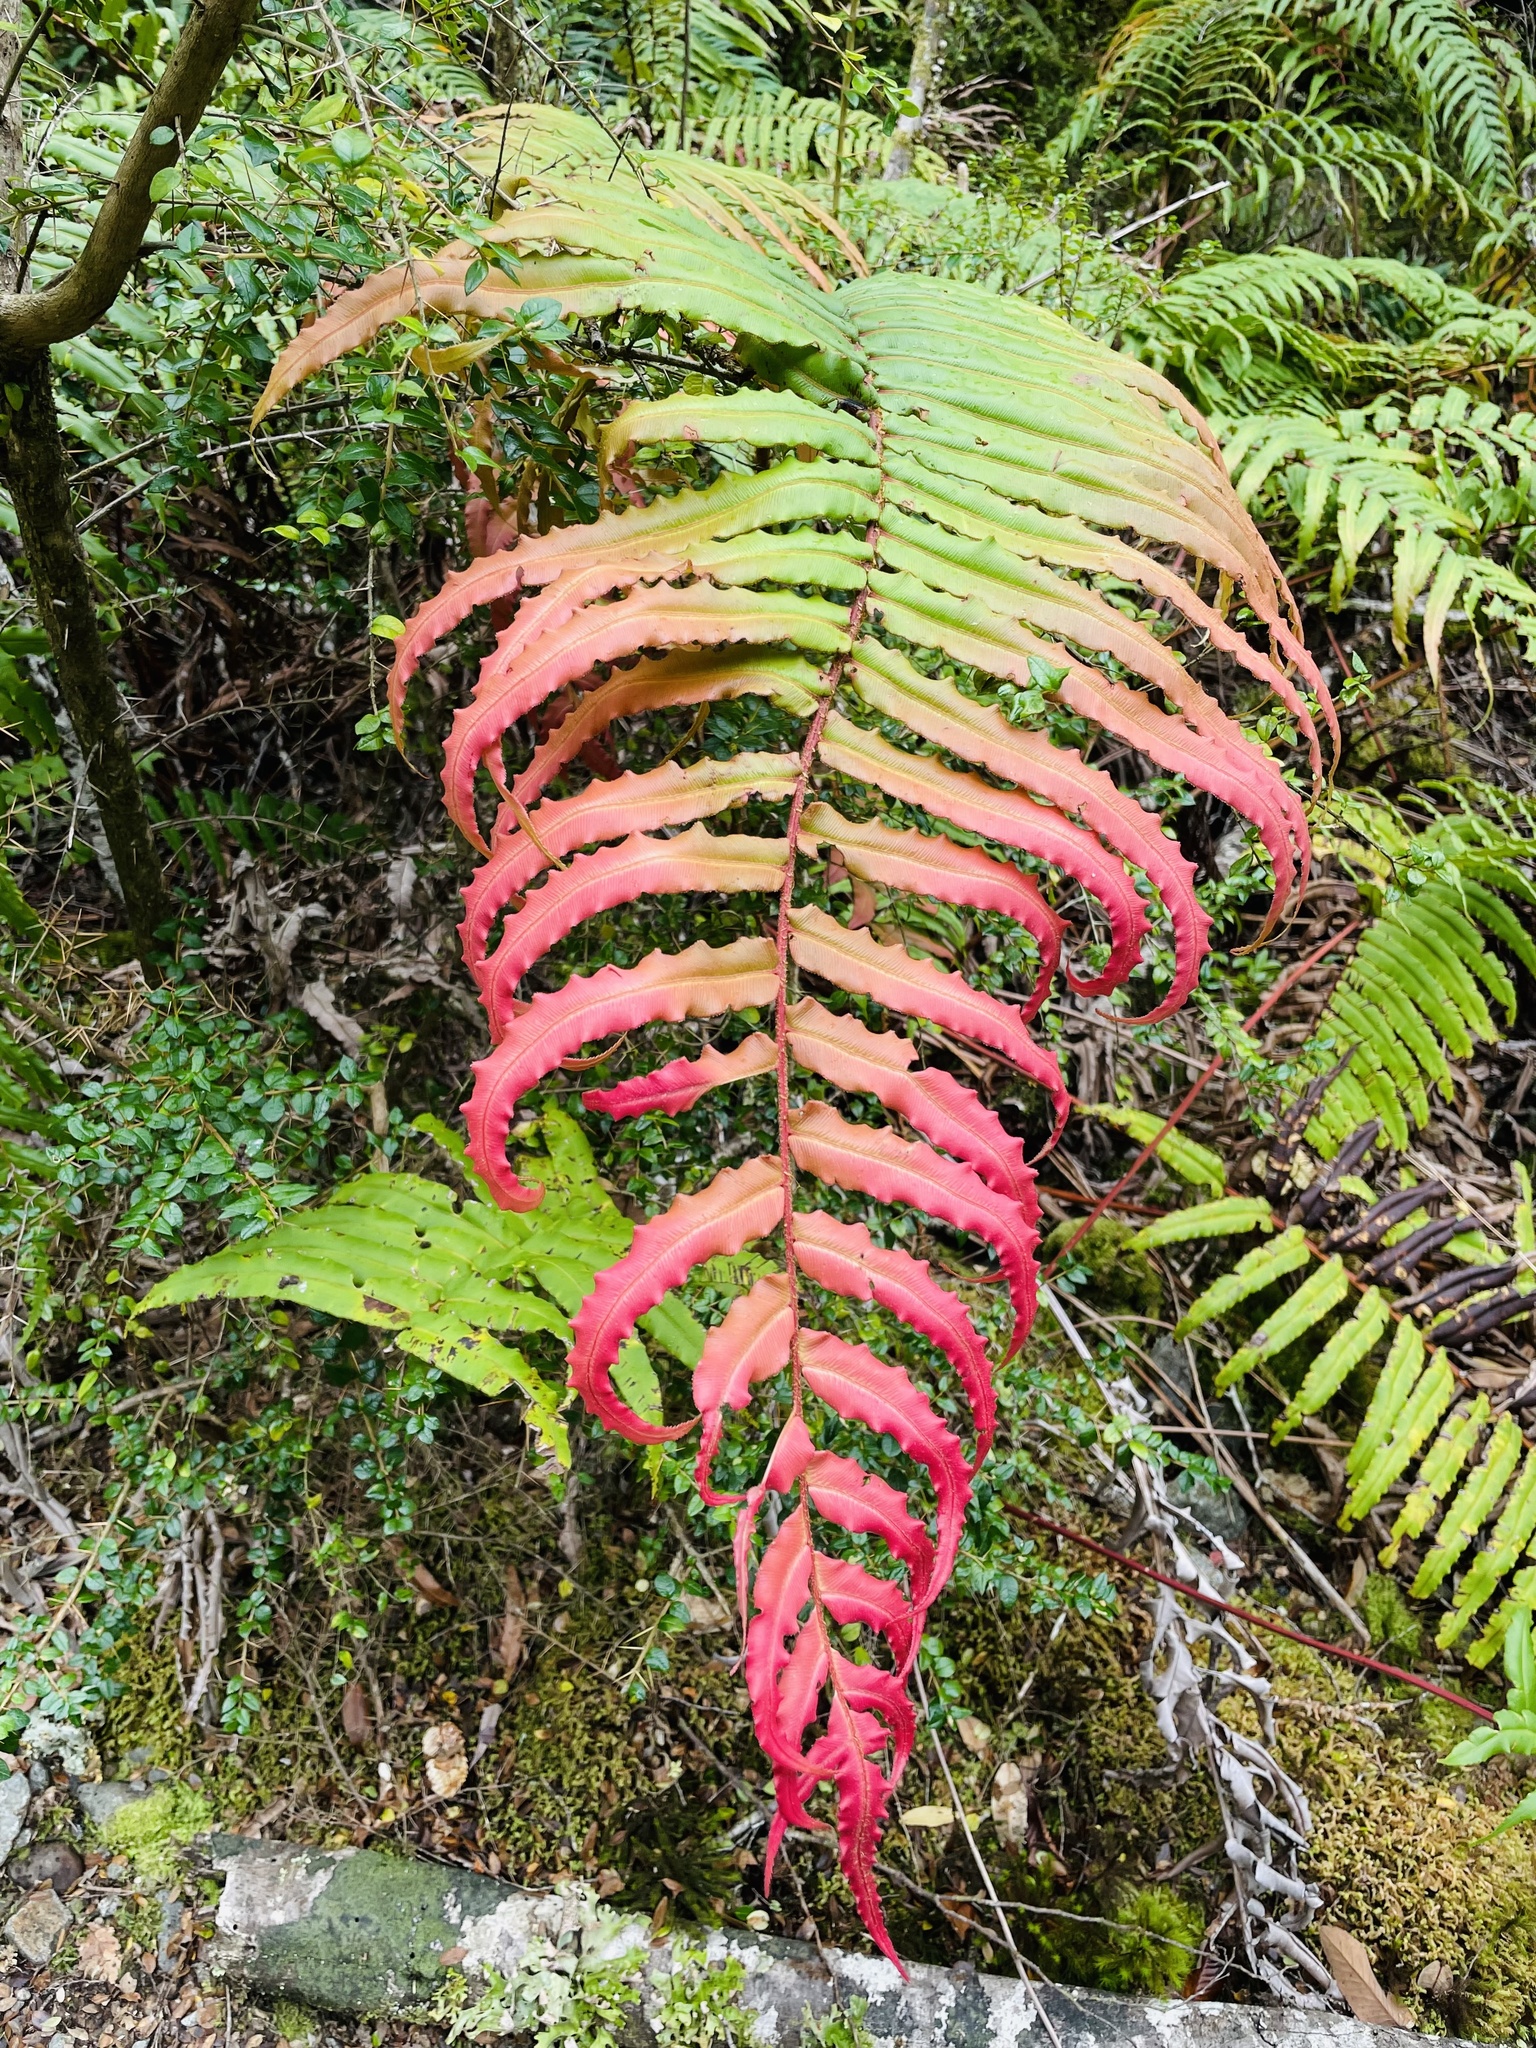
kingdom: Plantae
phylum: Tracheophyta
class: Polypodiopsida
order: Polypodiales
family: Blechnaceae
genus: Parablechnum
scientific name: Parablechnum chilense
